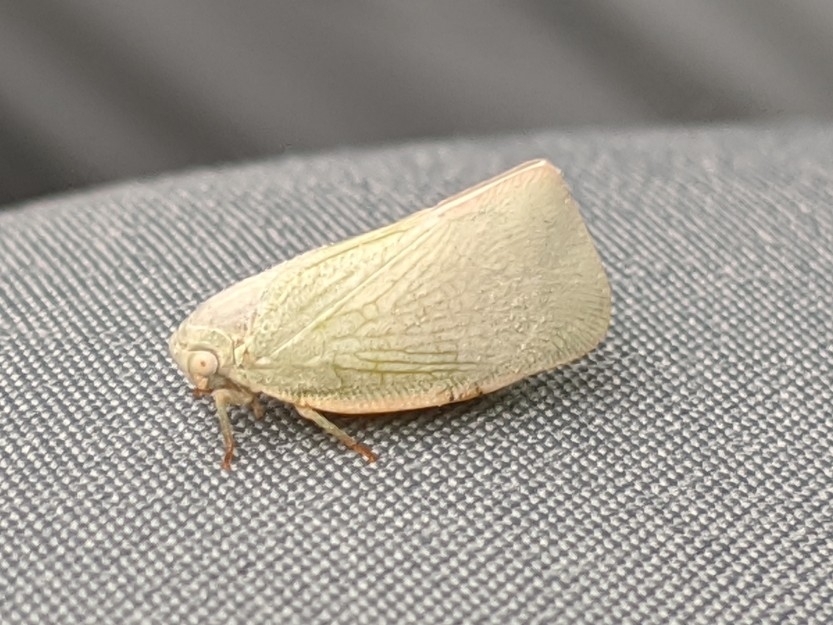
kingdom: Animalia
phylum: Arthropoda
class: Insecta
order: Hemiptera
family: Flatidae
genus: Flatormenis
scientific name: Flatormenis proxima
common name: Northern flatid planthopper
